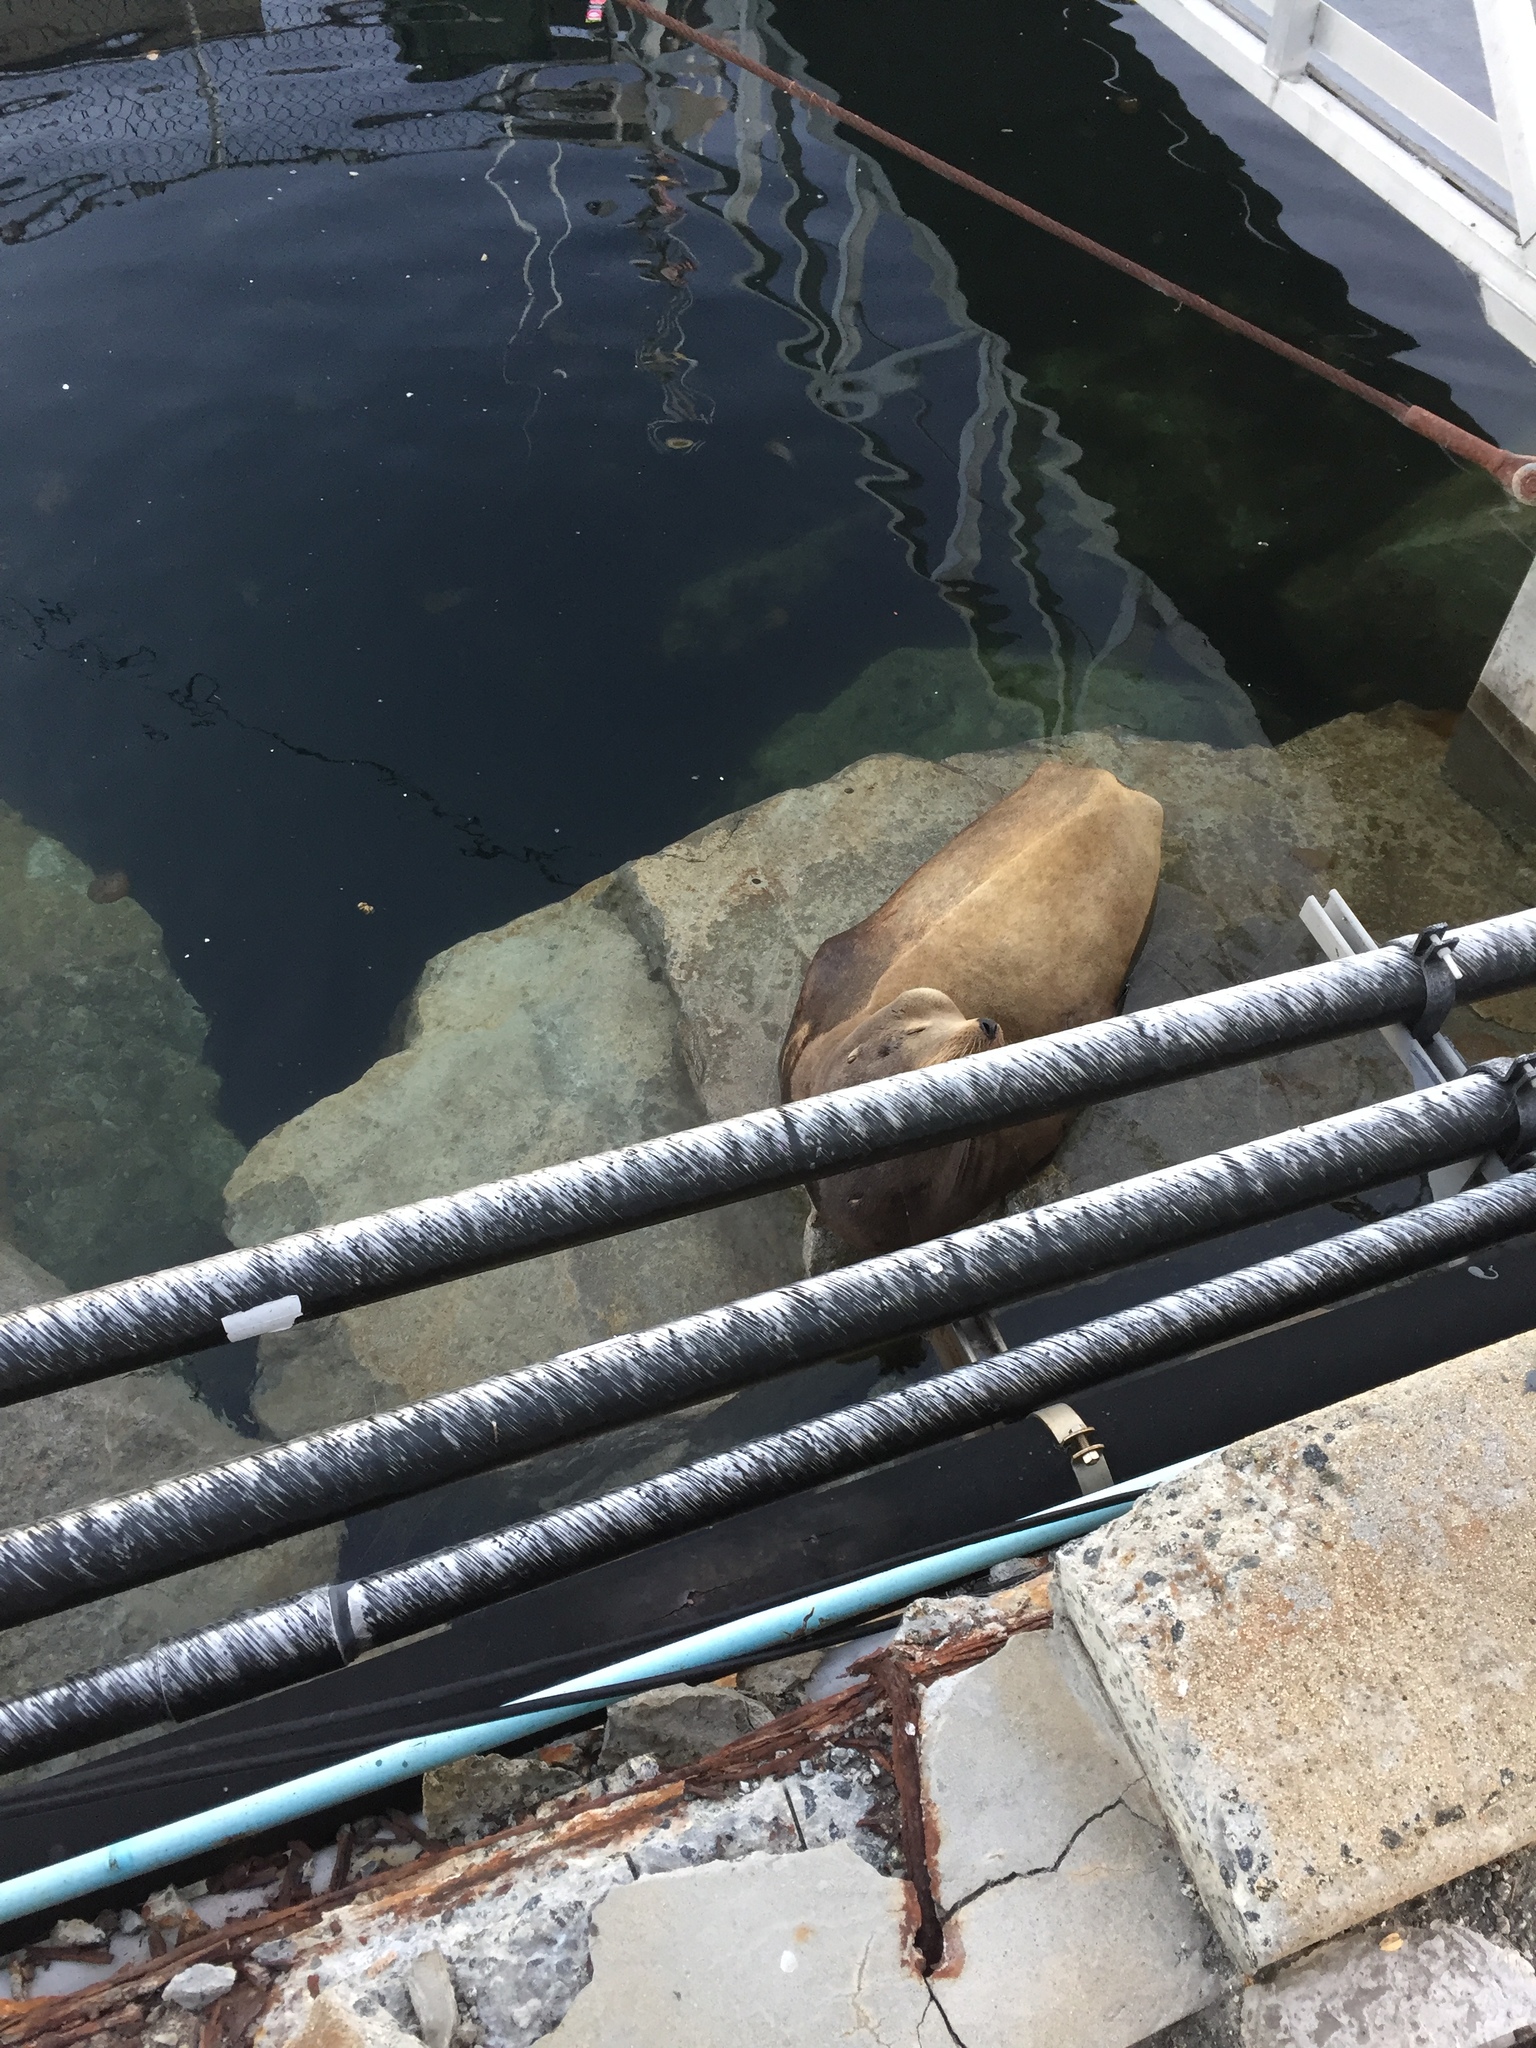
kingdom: Animalia
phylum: Chordata
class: Mammalia
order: Carnivora
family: Otariidae
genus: Zalophus
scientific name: Zalophus californianus
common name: California sea lion
